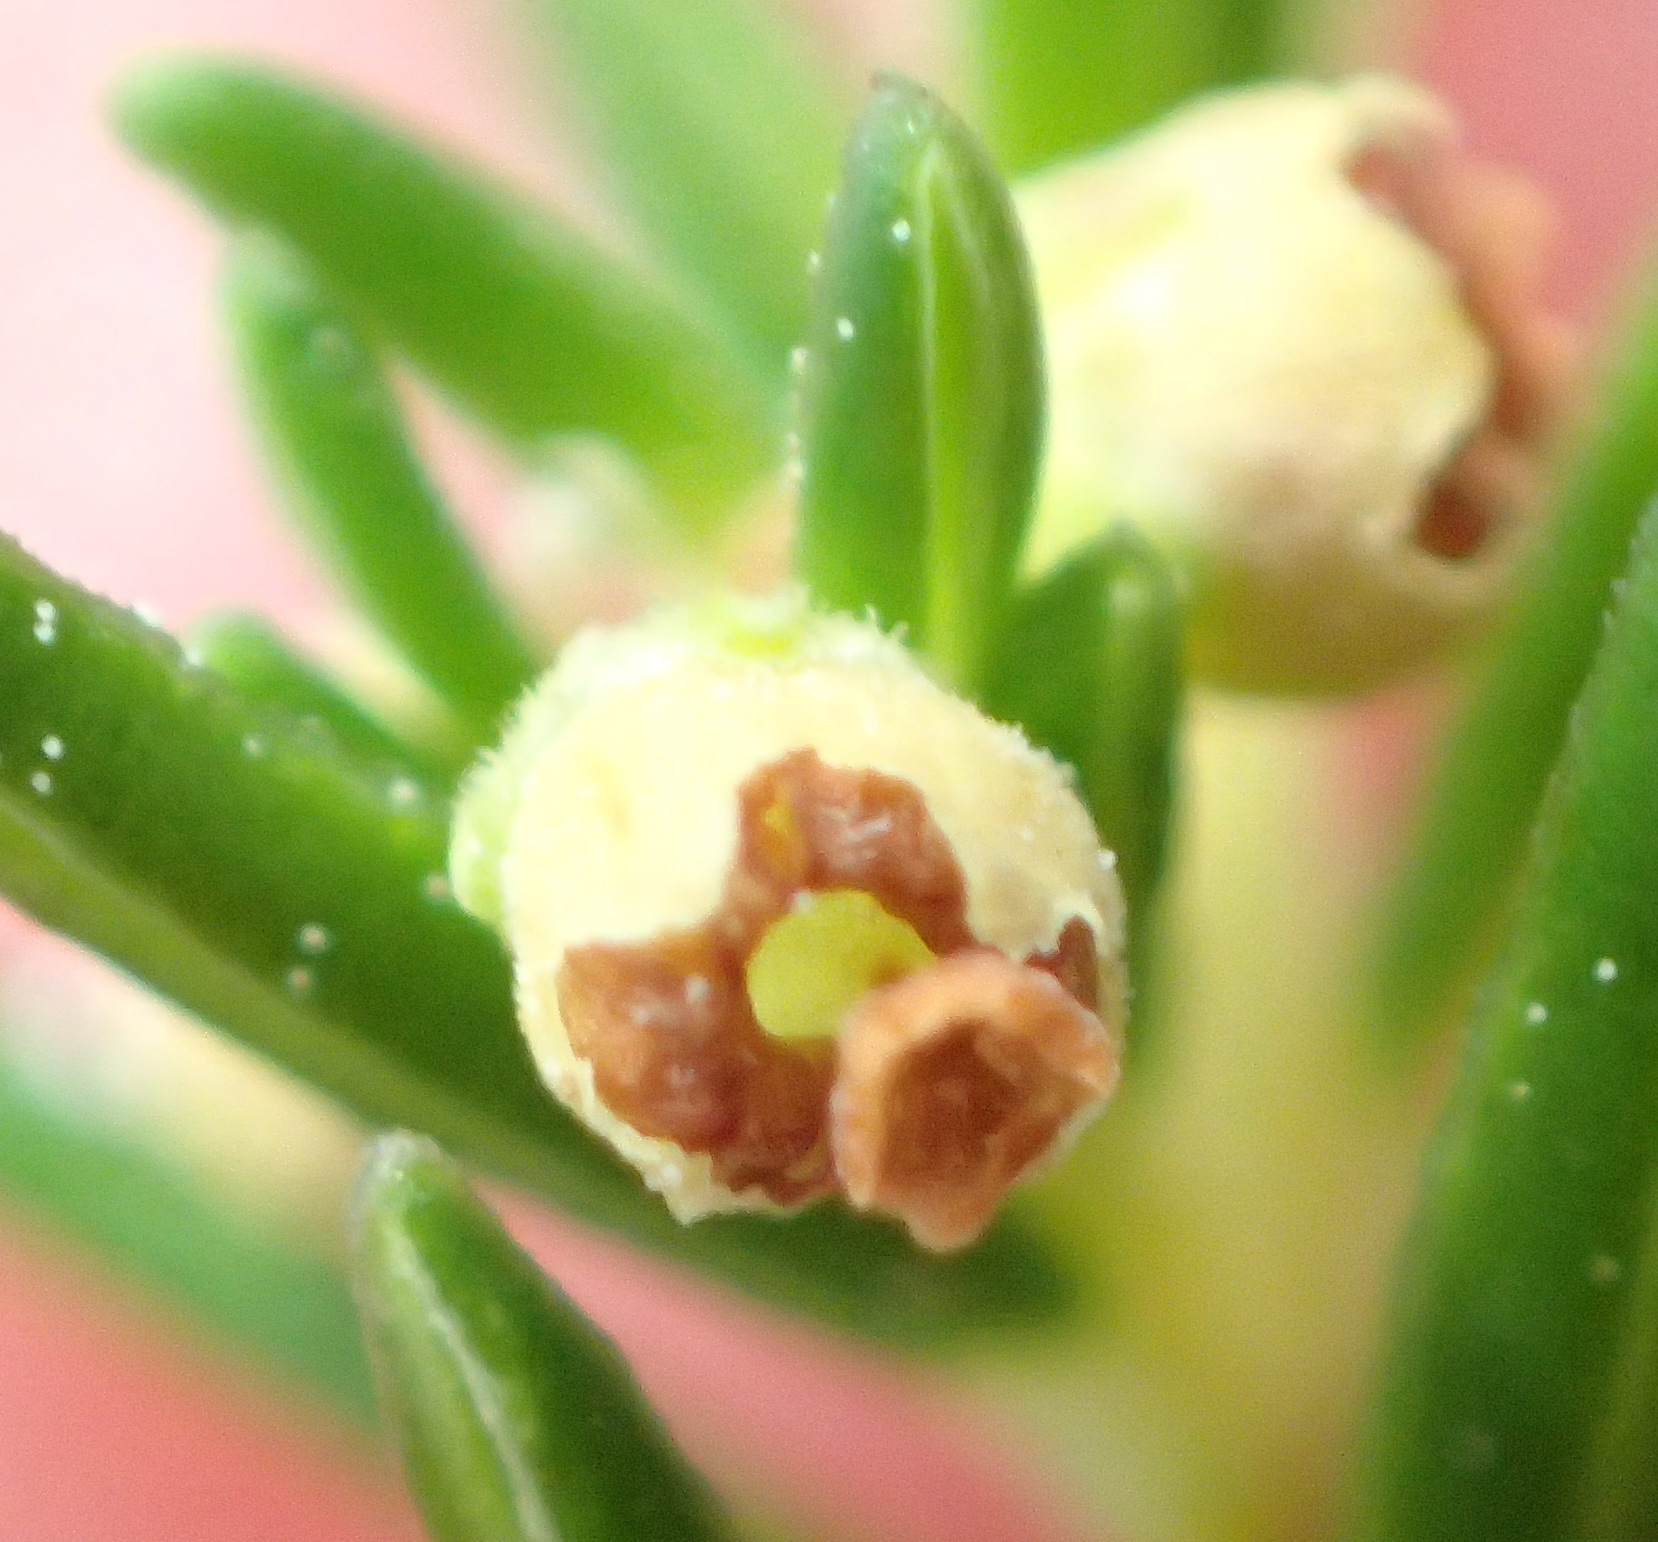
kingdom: Plantae
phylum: Tracheophyta
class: Magnoliopsida
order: Ericales
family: Ericaceae
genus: Erica
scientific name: Erica leucopelta
